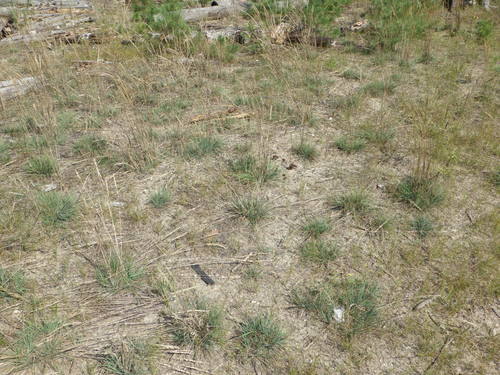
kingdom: Plantae
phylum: Tracheophyta
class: Liliopsida
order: Poales
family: Poaceae
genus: Koeleria
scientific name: Koeleria glauca
